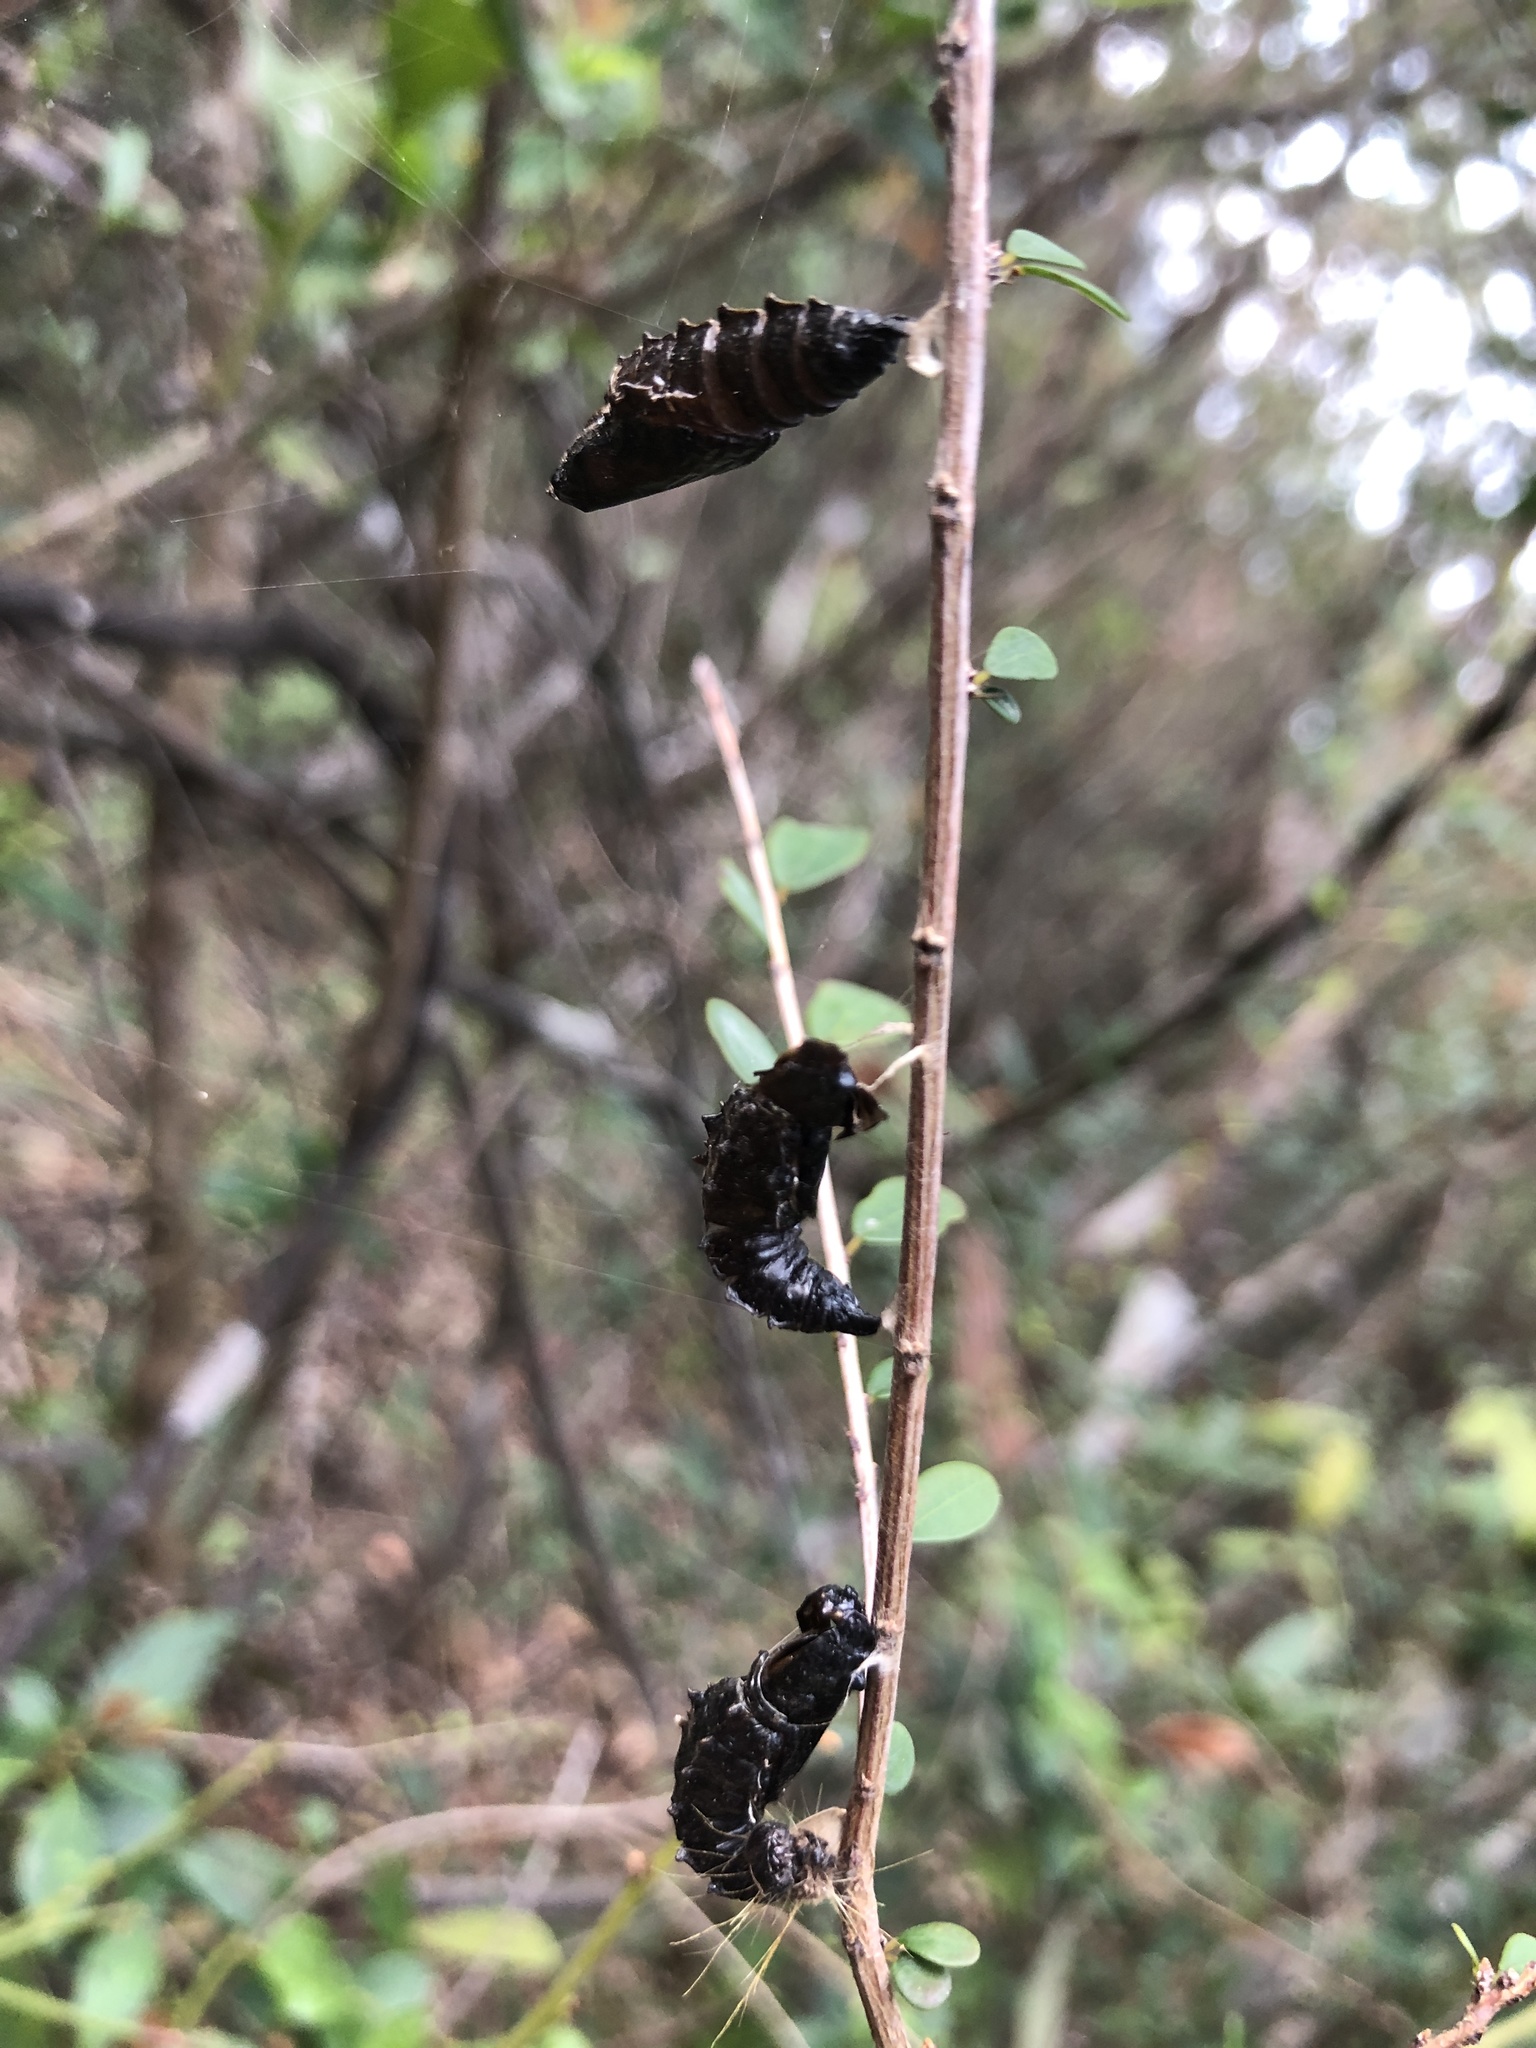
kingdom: Animalia
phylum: Arthropoda
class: Insecta
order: Lepidoptera
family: Pieridae
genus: Delias
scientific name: Delias pasithoe
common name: Red-base jezebel
